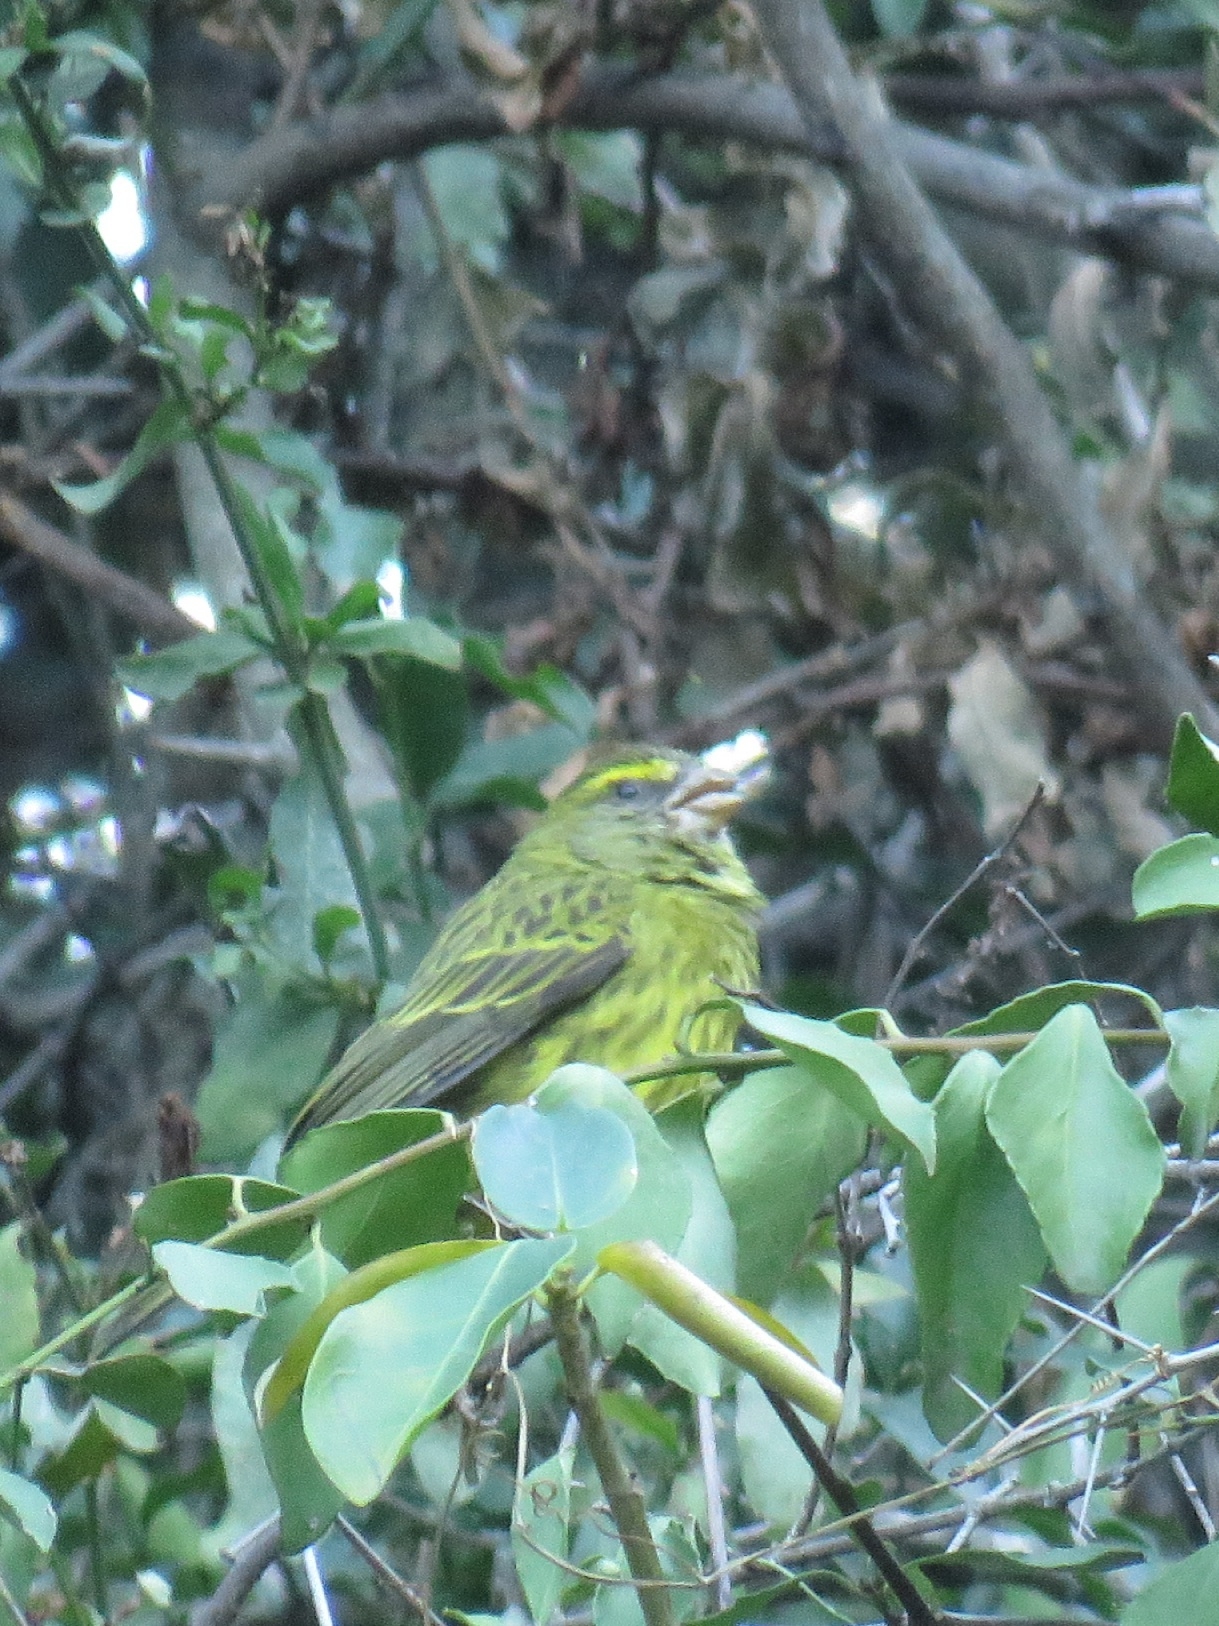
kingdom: Animalia
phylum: Chordata
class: Aves
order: Passeriformes
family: Fringillidae
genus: Crithagra
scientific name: Crithagra scotops
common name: Forest canary
